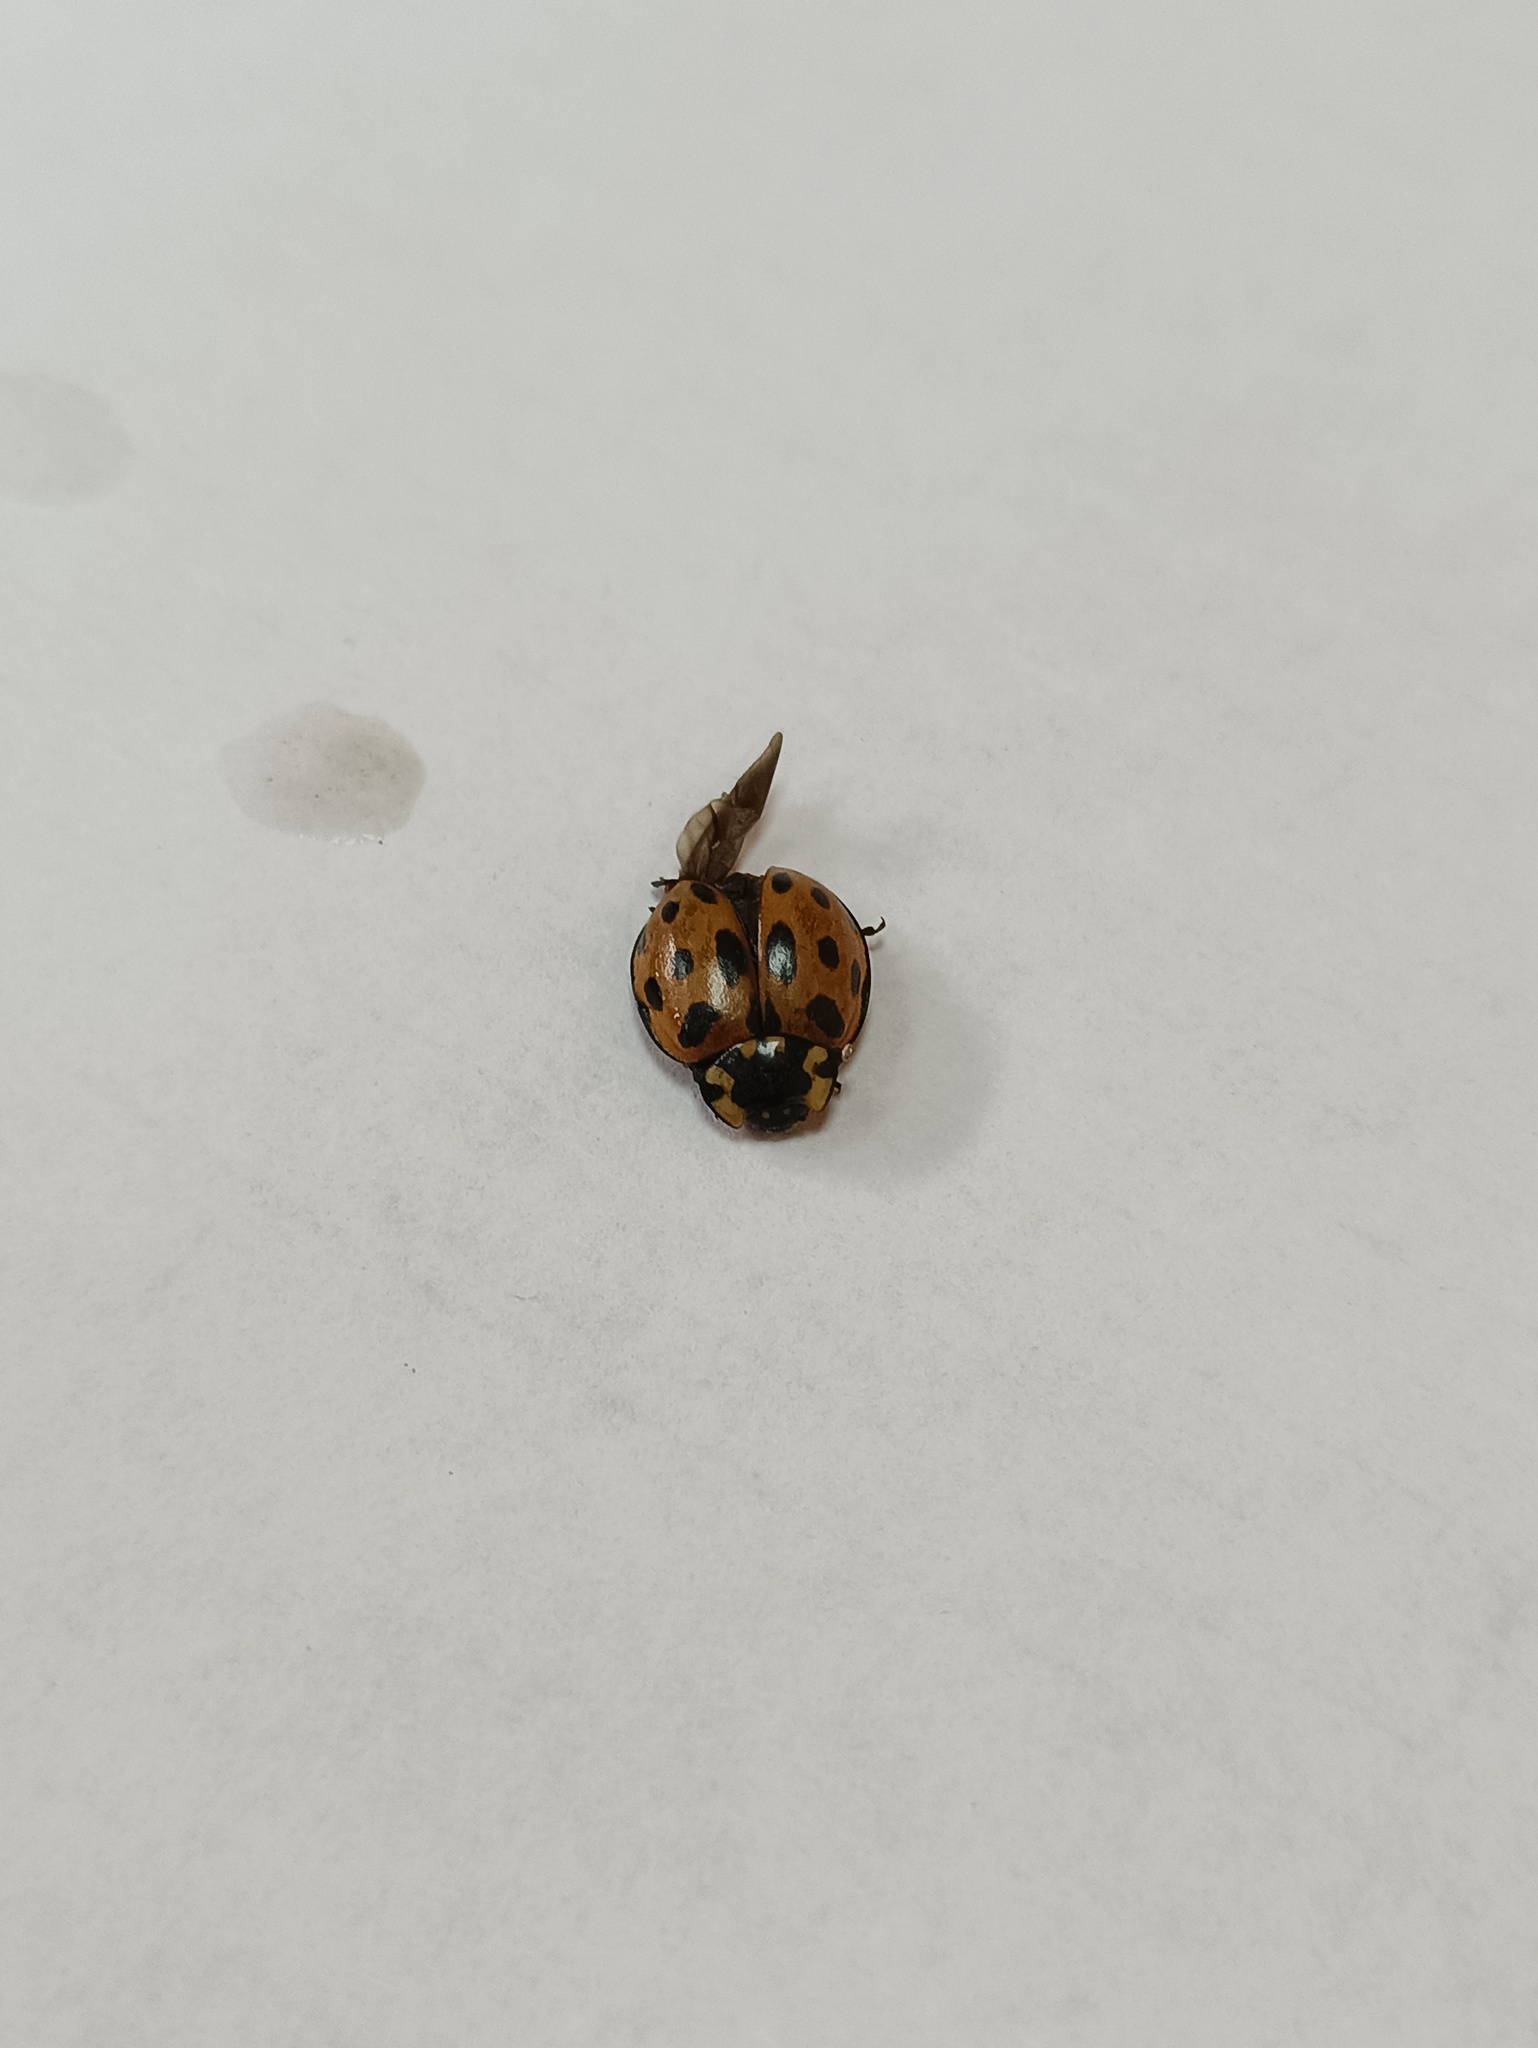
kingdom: Animalia
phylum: Arthropoda
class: Insecta
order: Coleoptera
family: Coccinellidae
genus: Anatis
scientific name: Anatis ocellata
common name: Eyed ladybird
